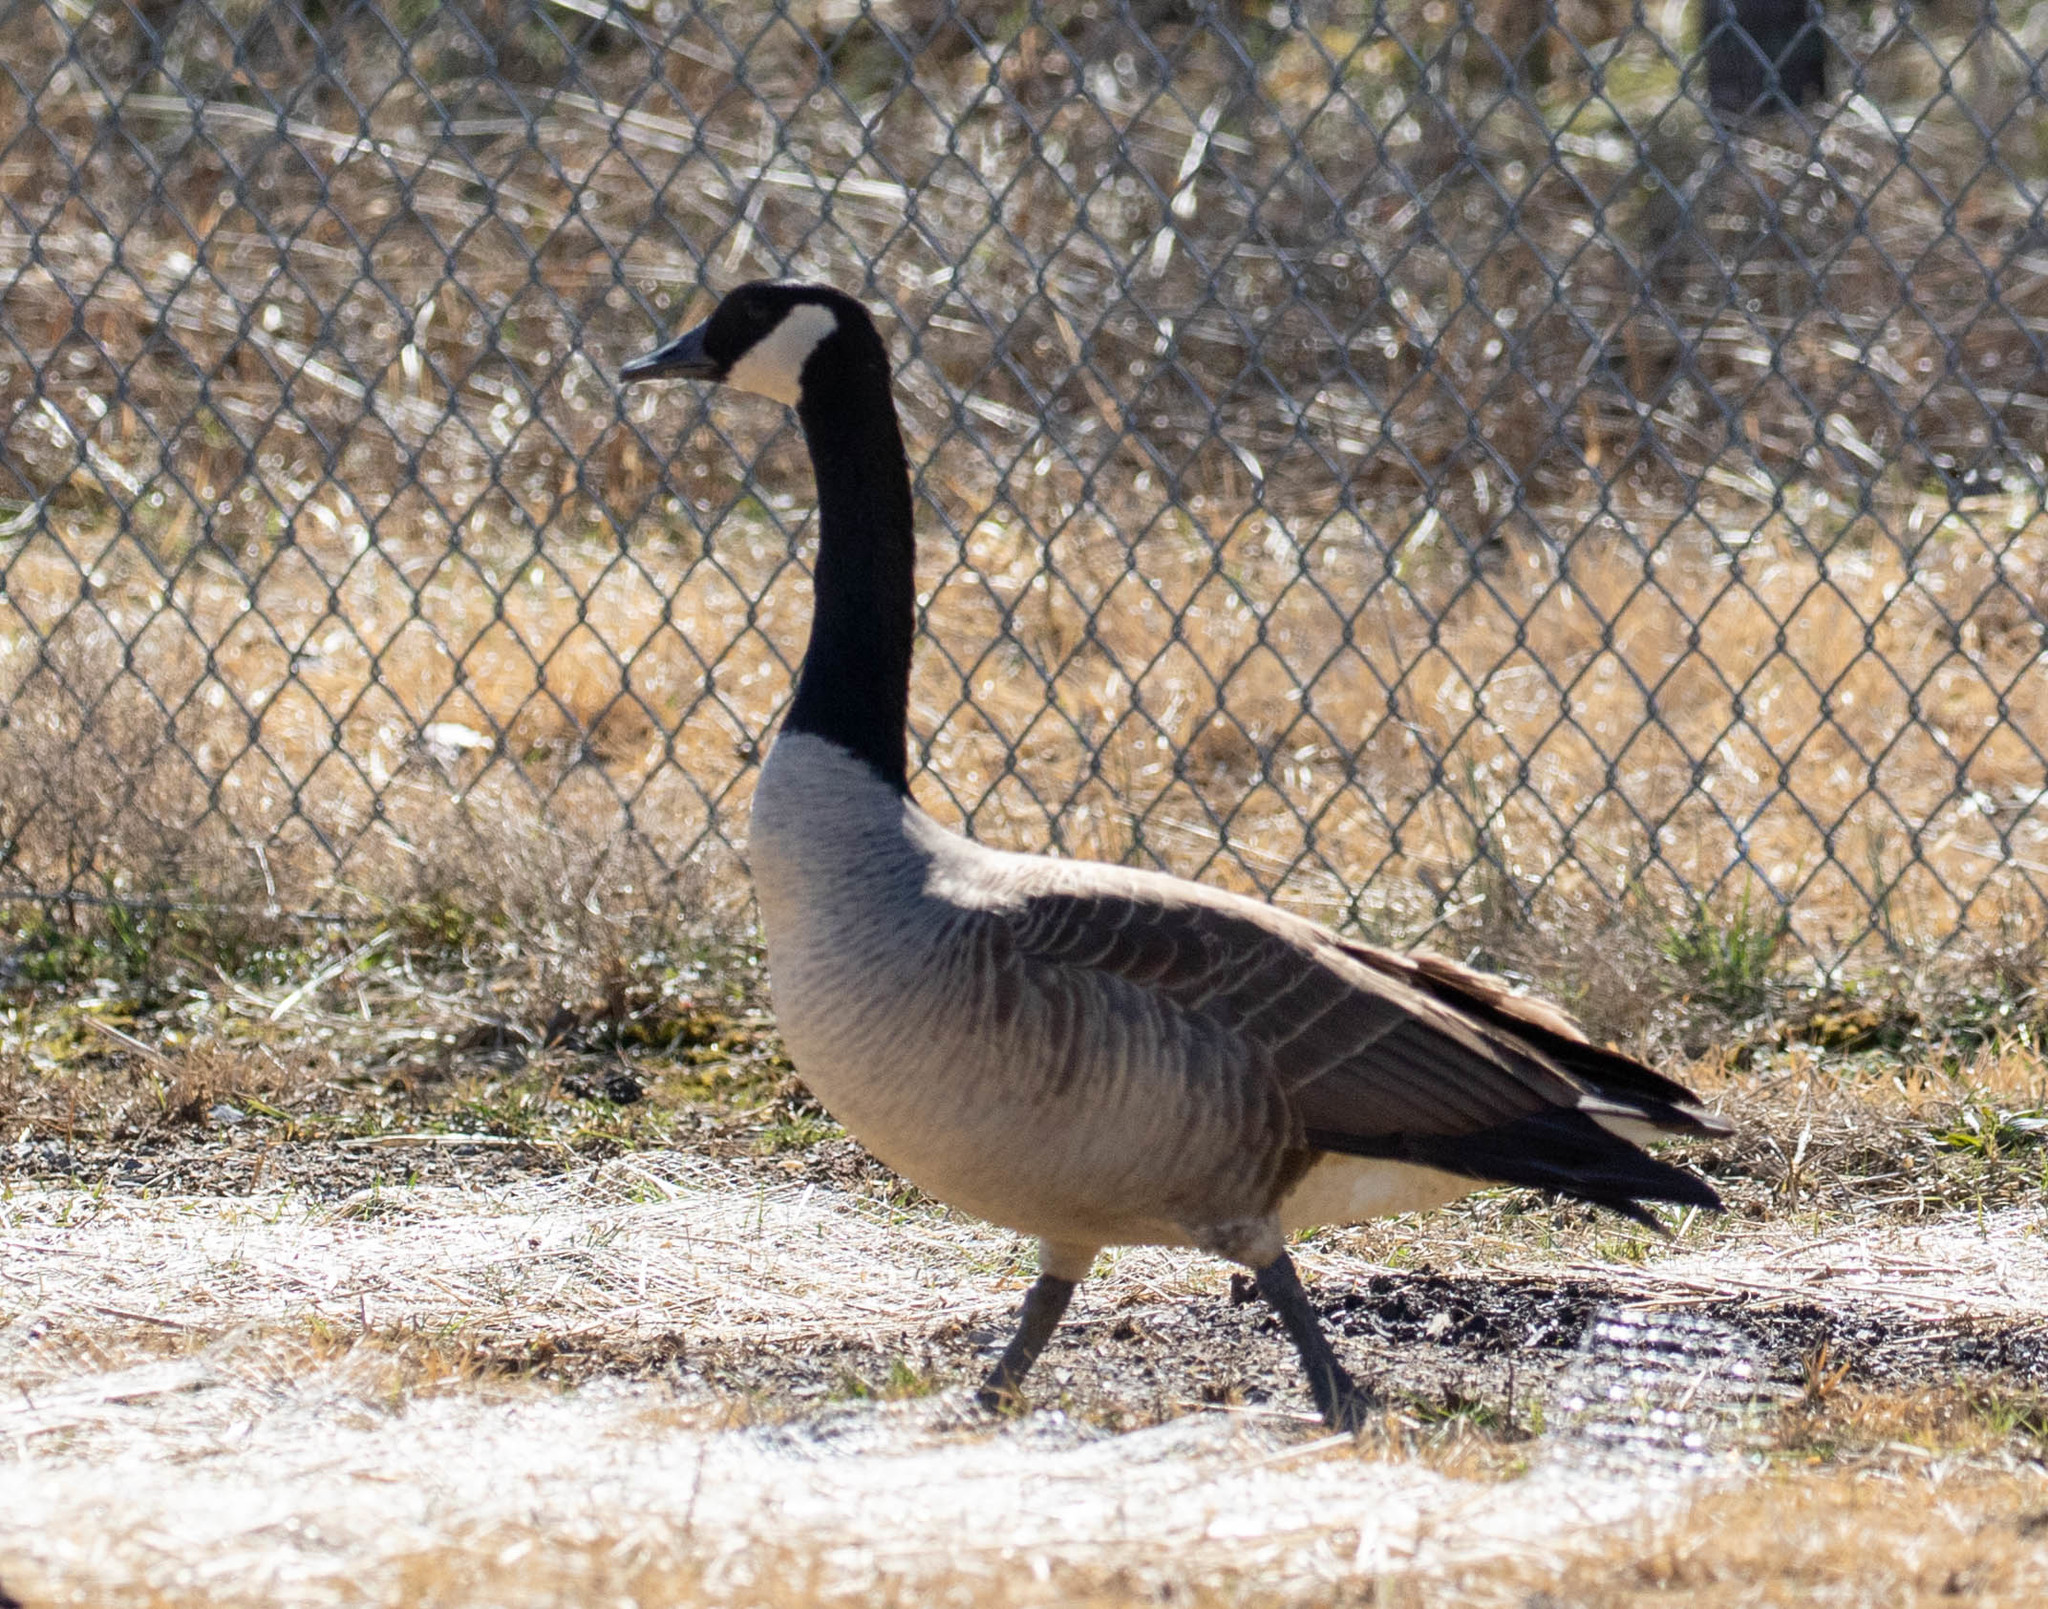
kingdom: Animalia
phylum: Chordata
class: Aves
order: Anseriformes
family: Anatidae
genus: Branta
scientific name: Branta canadensis
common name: Canada goose
